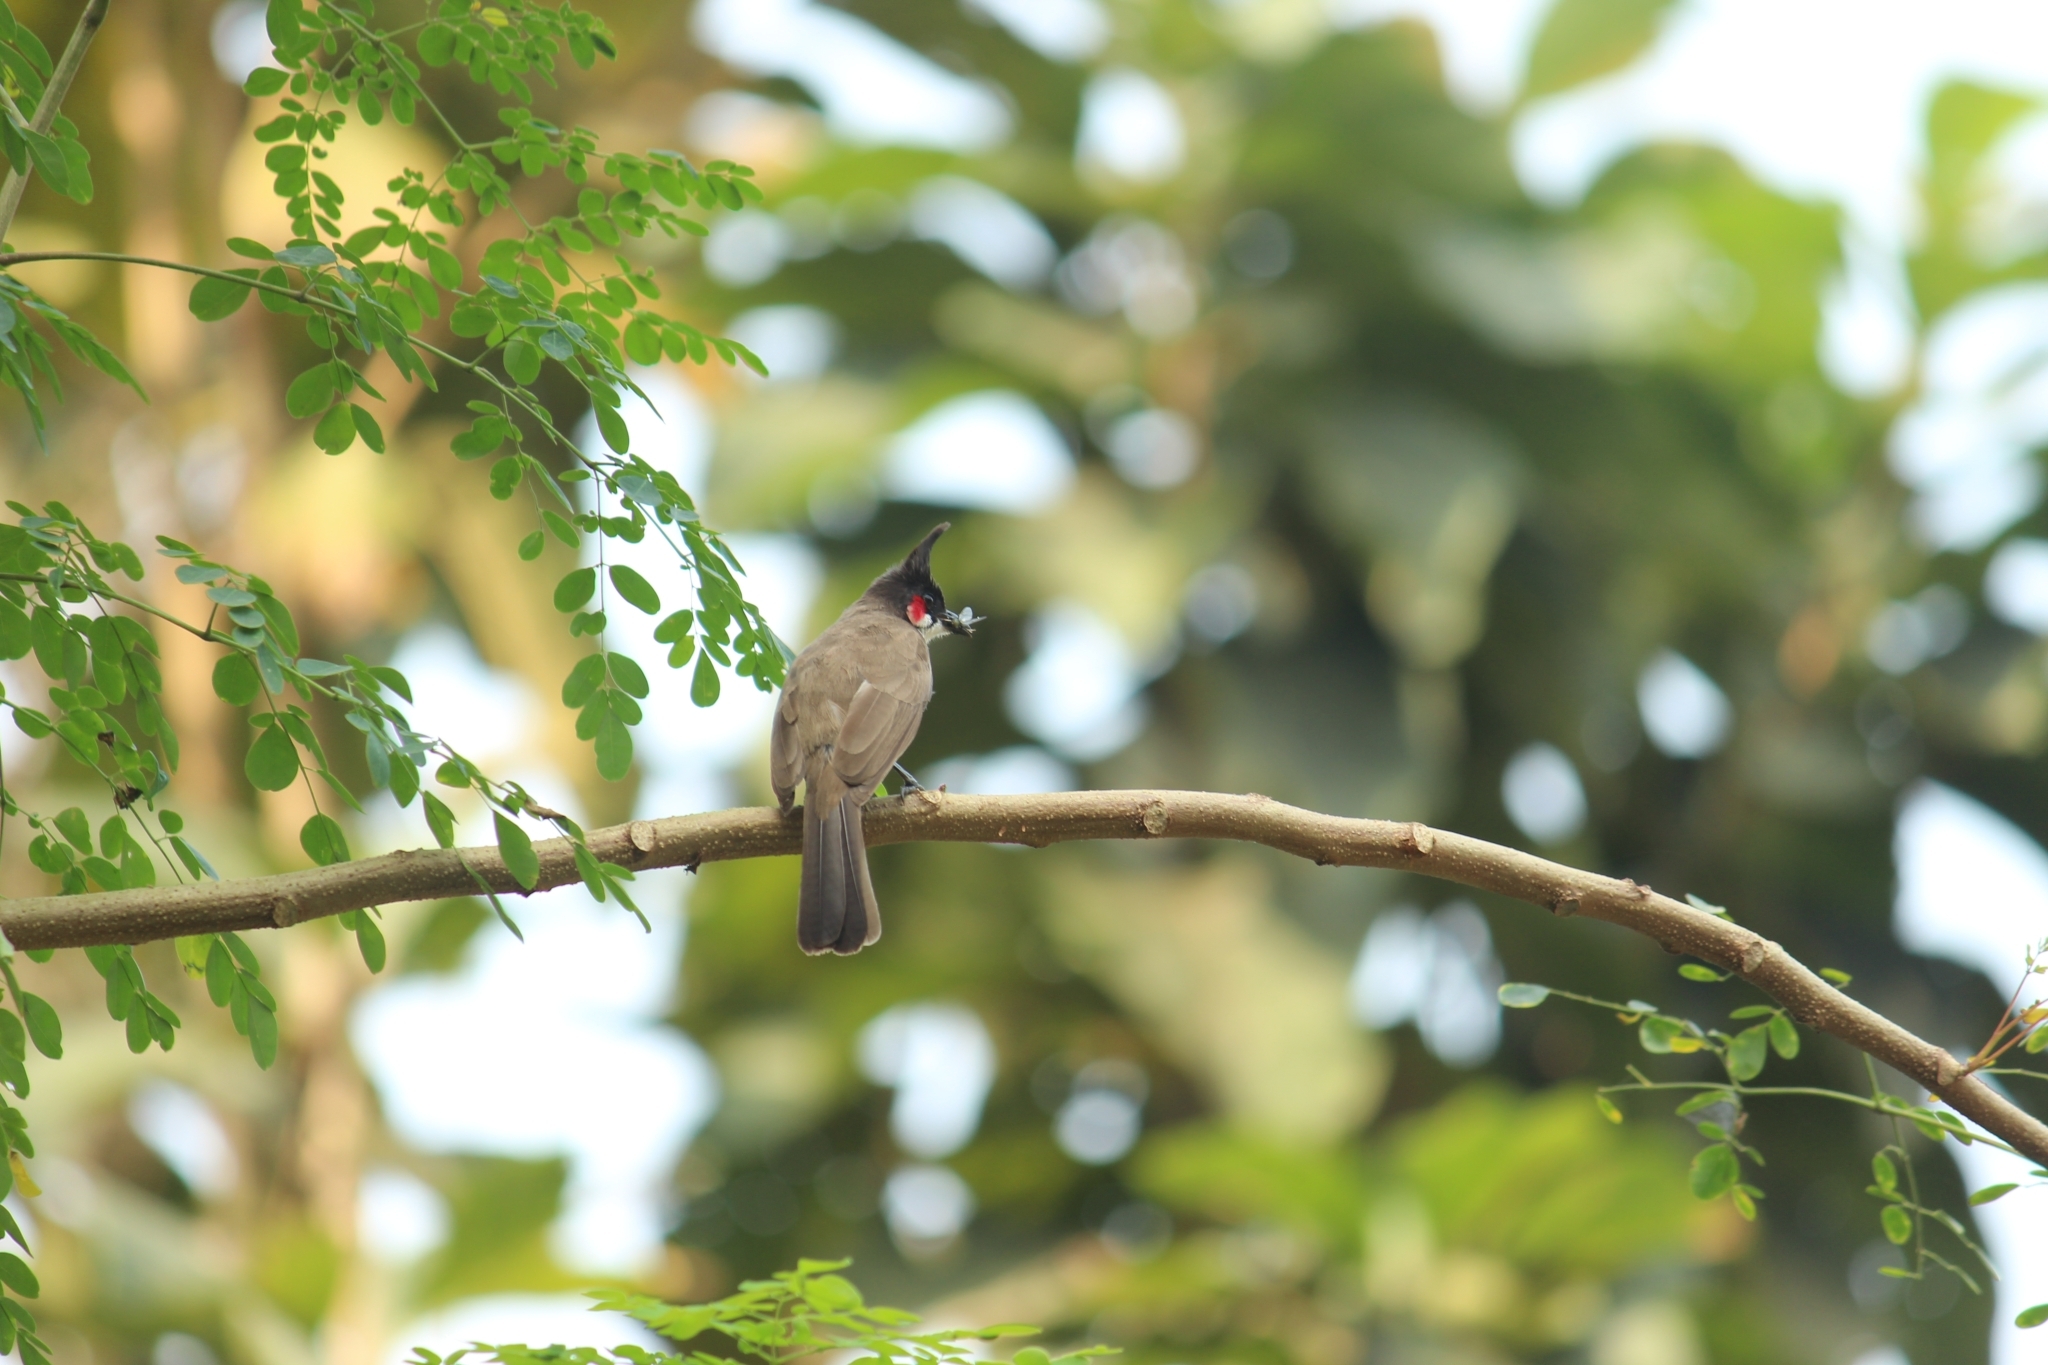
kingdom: Animalia
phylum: Chordata
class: Aves
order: Passeriformes
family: Pycnonotidae
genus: Pycnonotus
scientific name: Pycnonotus jocosus
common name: Red-whiskered bulbul
